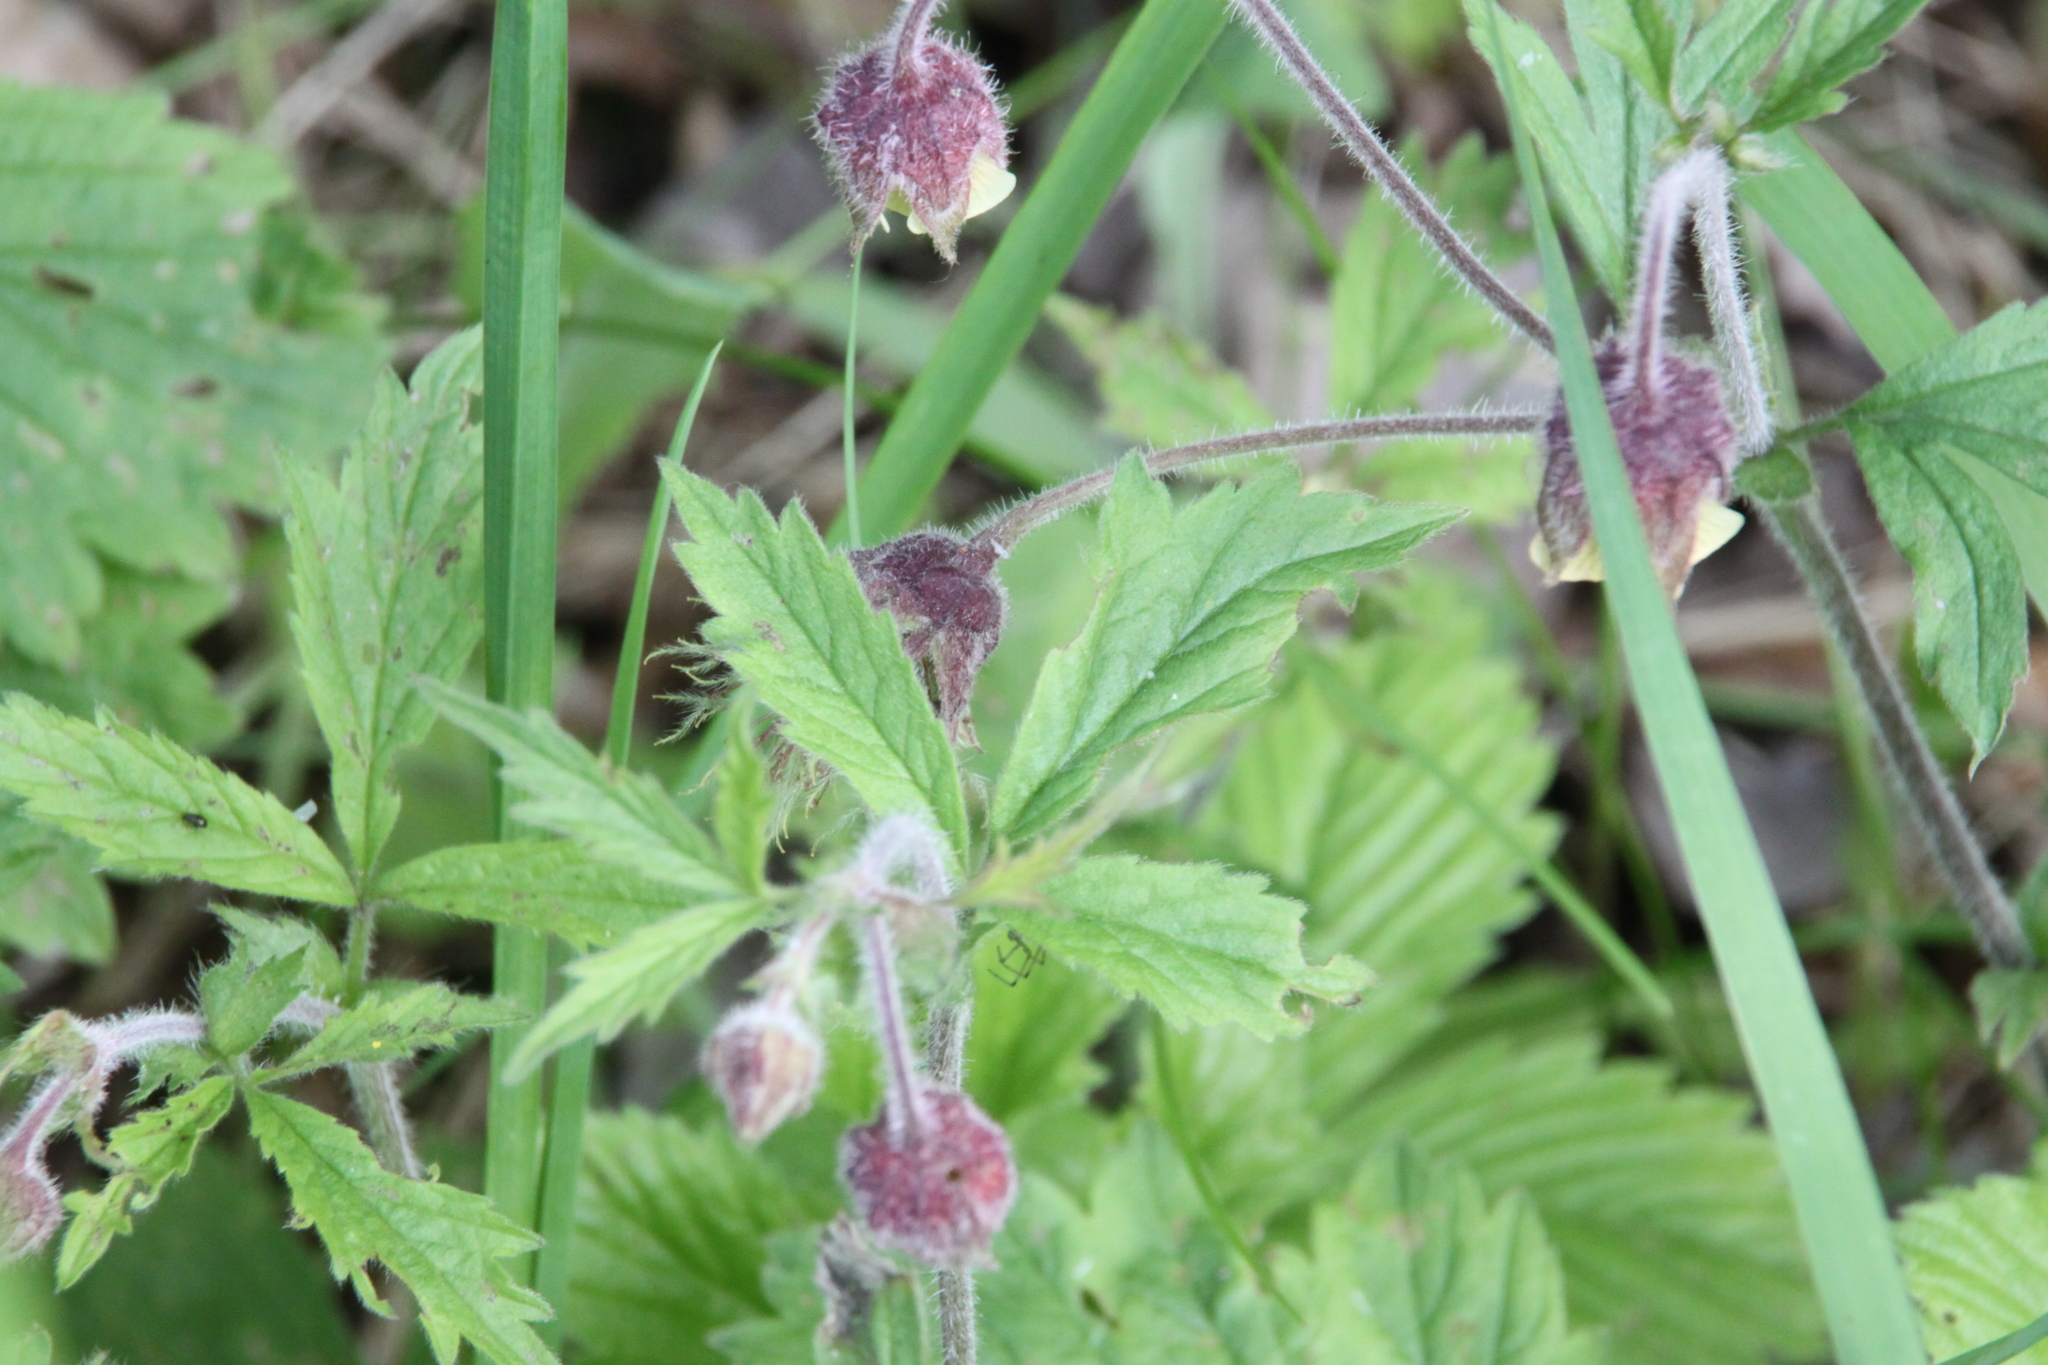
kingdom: Plantae
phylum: Tracheophyta
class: Magnoliopsida
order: Rosales
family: Rosaceae
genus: Geum
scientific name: Geum rivale
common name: Water avens
